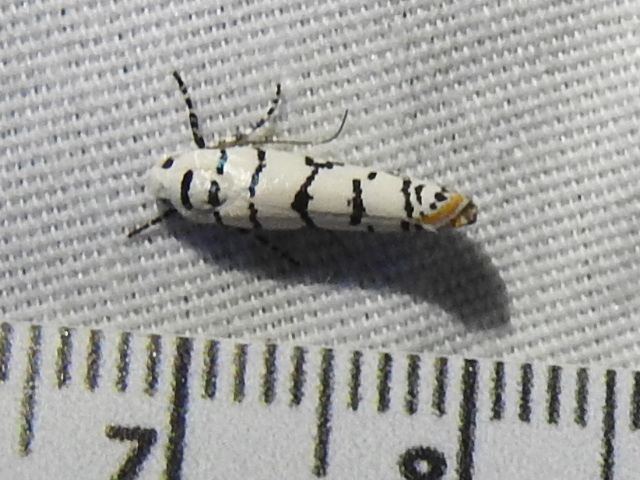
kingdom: Animalia
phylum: Arthropoda
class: Insecta
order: Lepidoptera
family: Ethmiidae
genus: Ethmia
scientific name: Ethmia delliella
